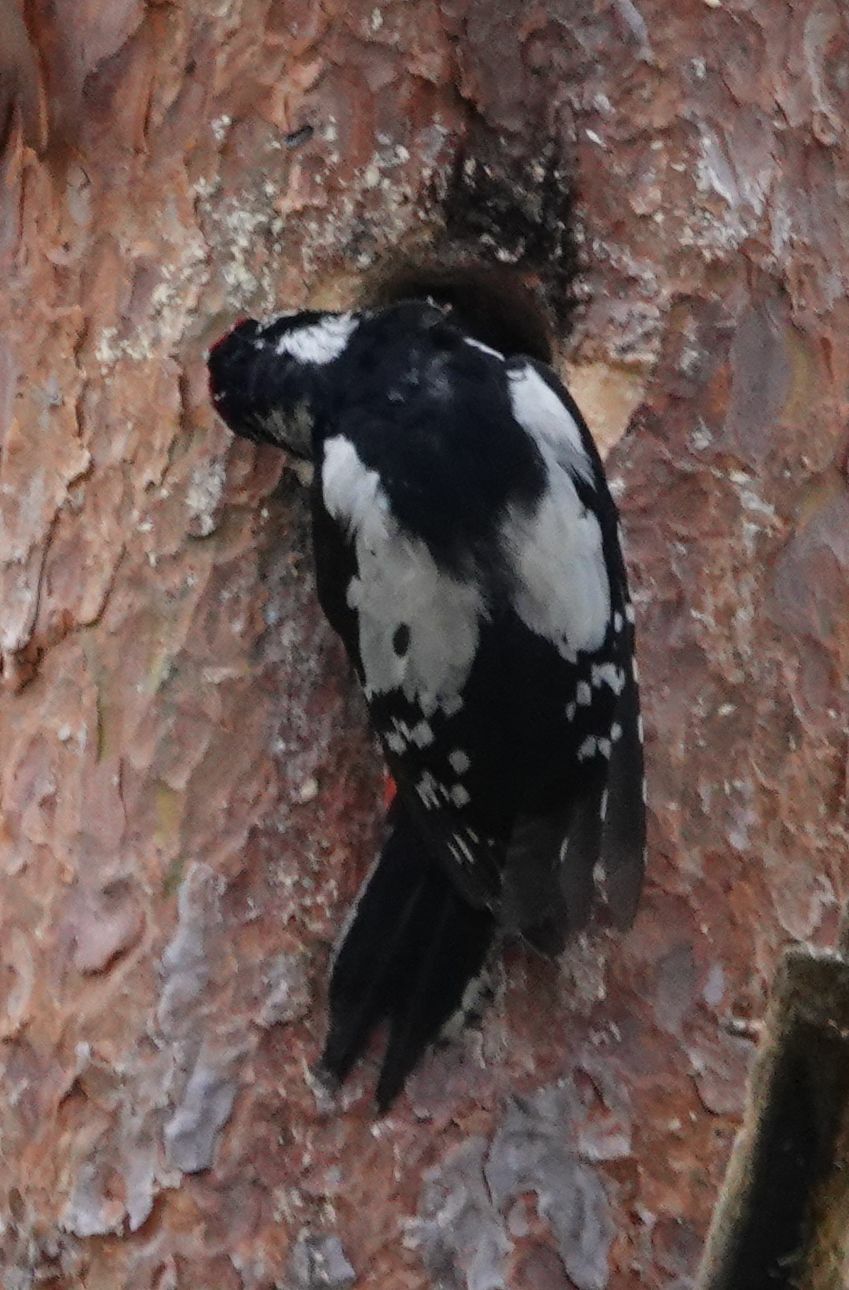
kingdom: Animalia
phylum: Chordata
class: Aves
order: Piciformes
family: Picidae
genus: Dendrocopos
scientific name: Dendrocopos major
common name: Great spotted woodpecker
